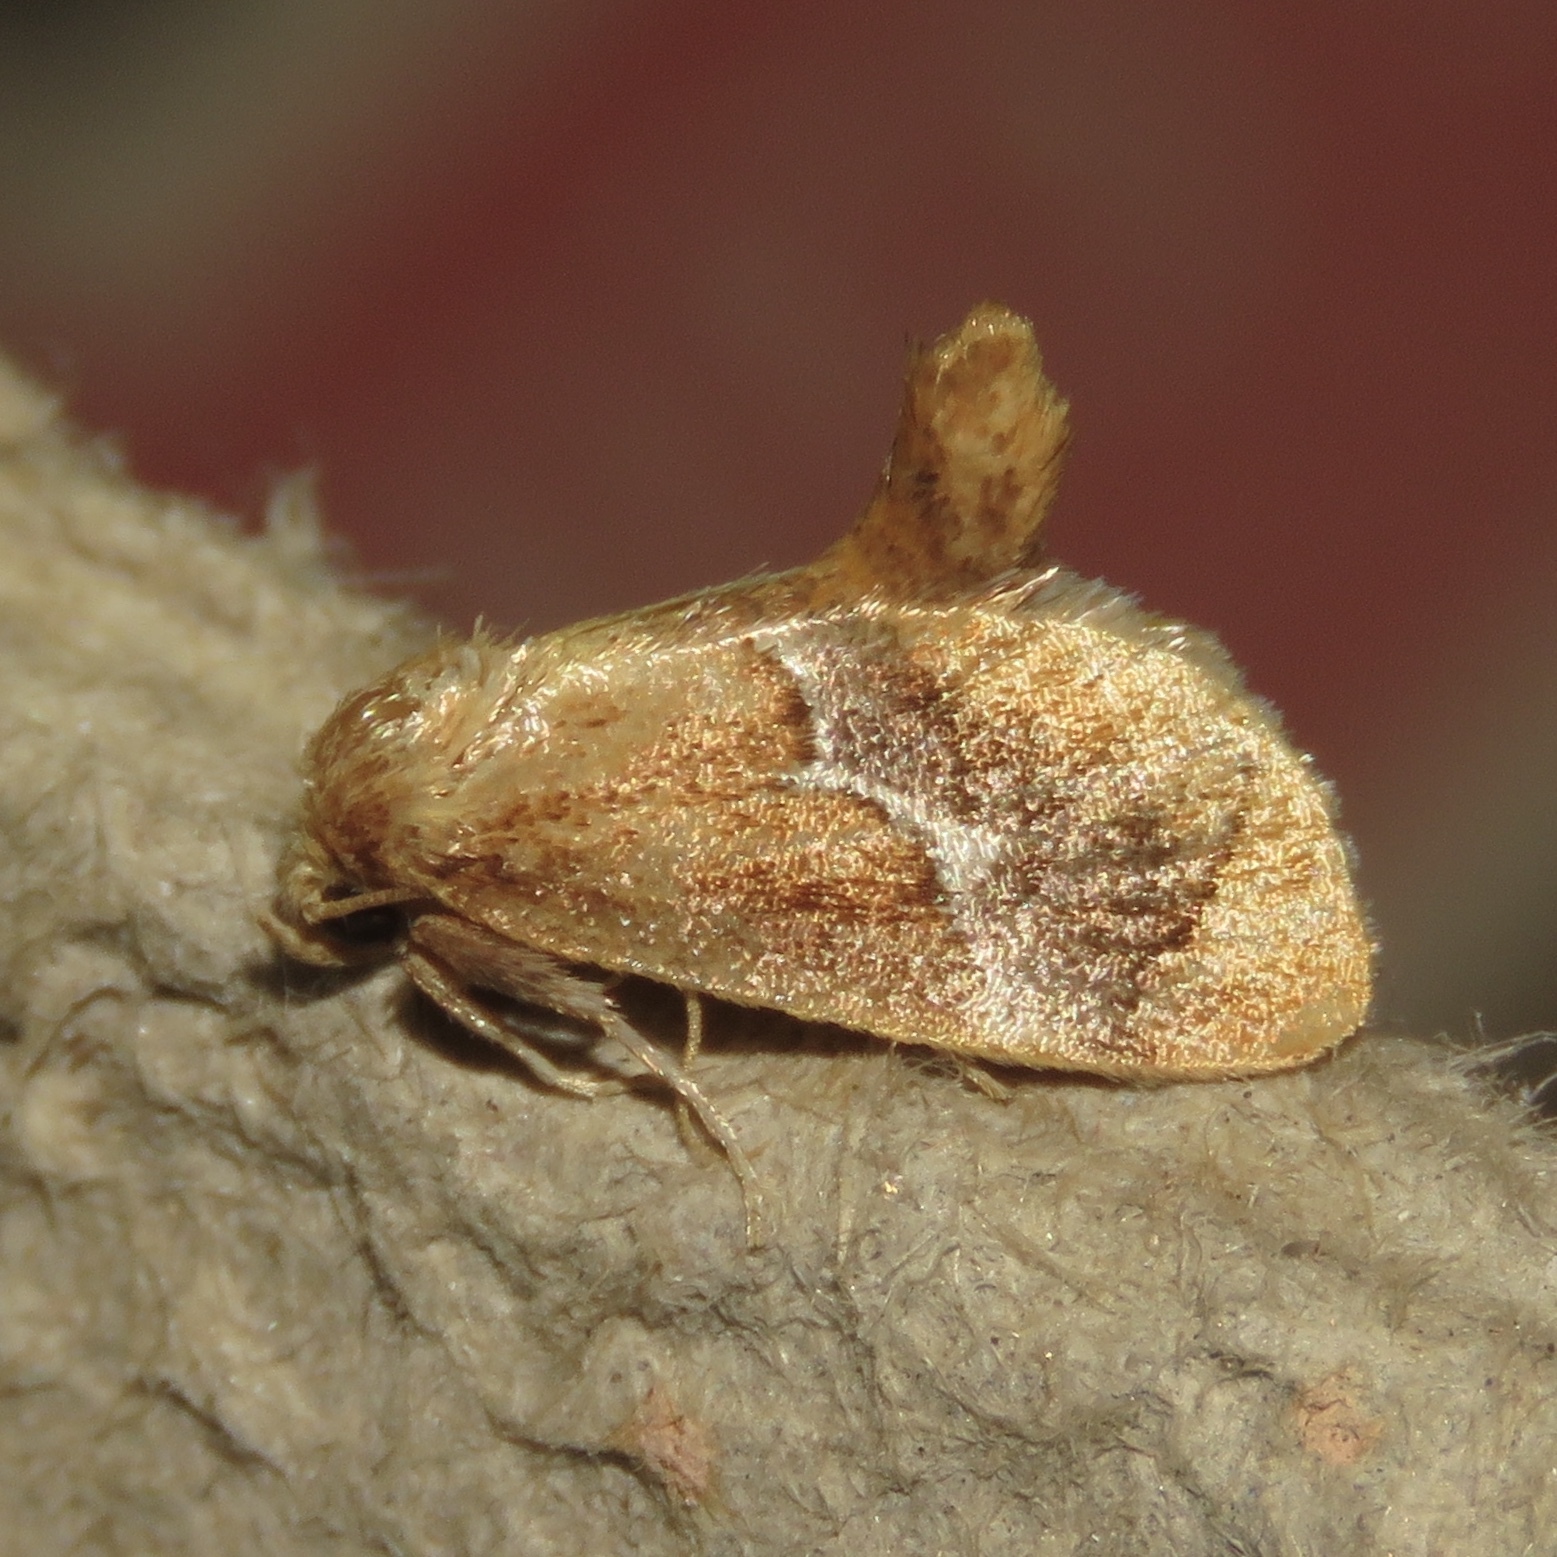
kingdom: Animalia
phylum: Arthropoda
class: Insecta
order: Lepidoptera
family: Limacodidae
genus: Lithacodes
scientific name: Lithacodes fasciola
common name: Yellow-shouldered slug moth
